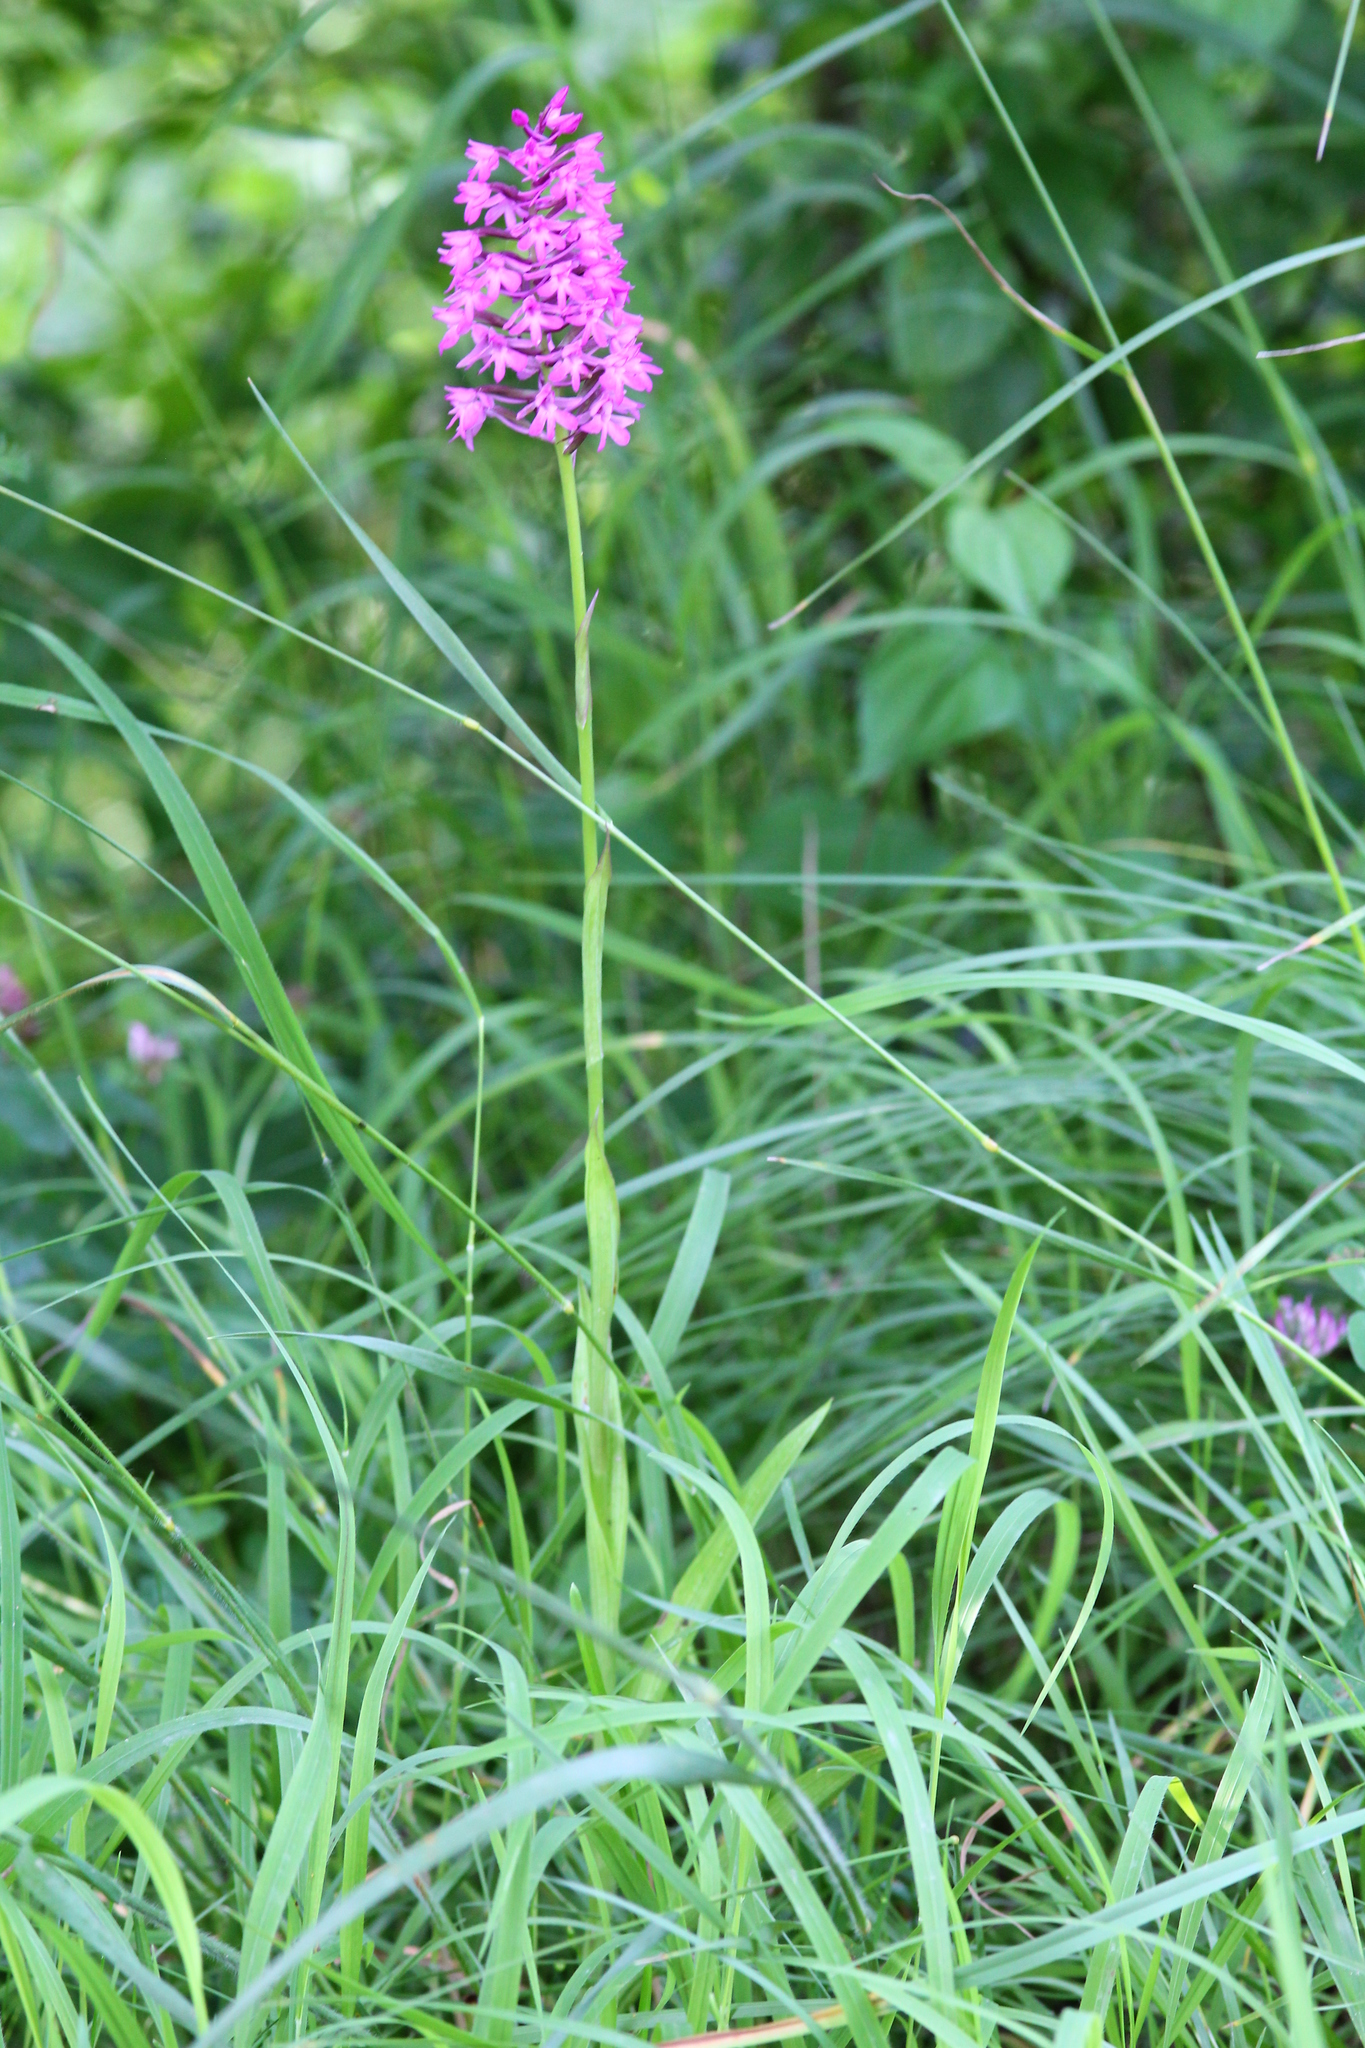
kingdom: Plantae
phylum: Tracheophyta
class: Liliopsida
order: Asparagales
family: Orchidaceae
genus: Anacamptis
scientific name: Anacamptis pyramidalis
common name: Pyramidal orchid
